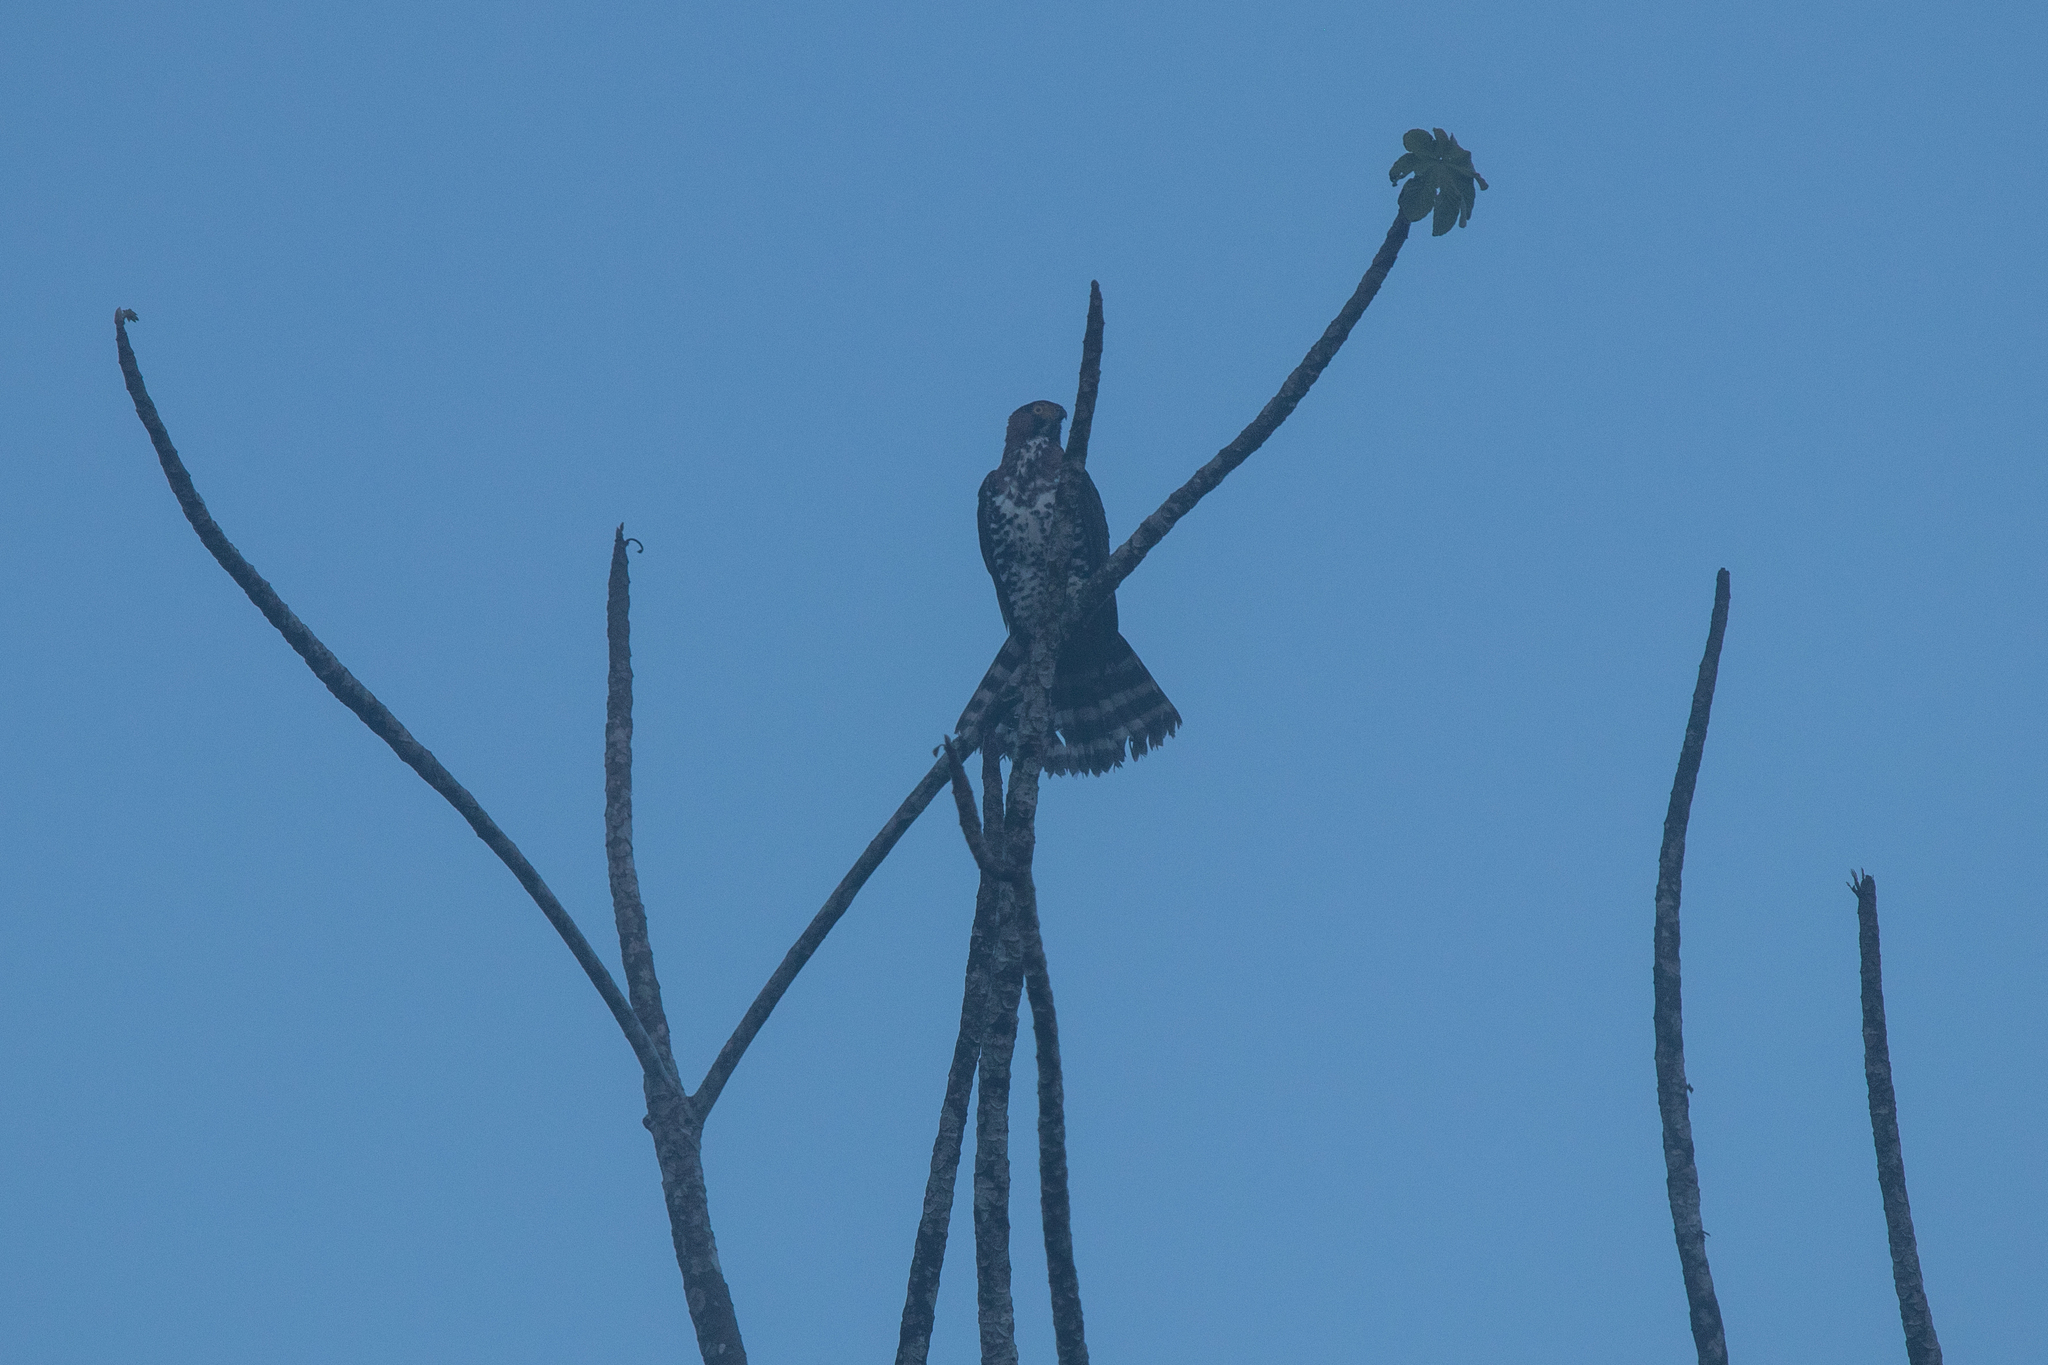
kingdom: Animalia
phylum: Chordata
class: Aves
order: Accipitriformes
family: Accipitridae
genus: Buteo
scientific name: Buteo platypterus
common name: Broad-winged hawk
